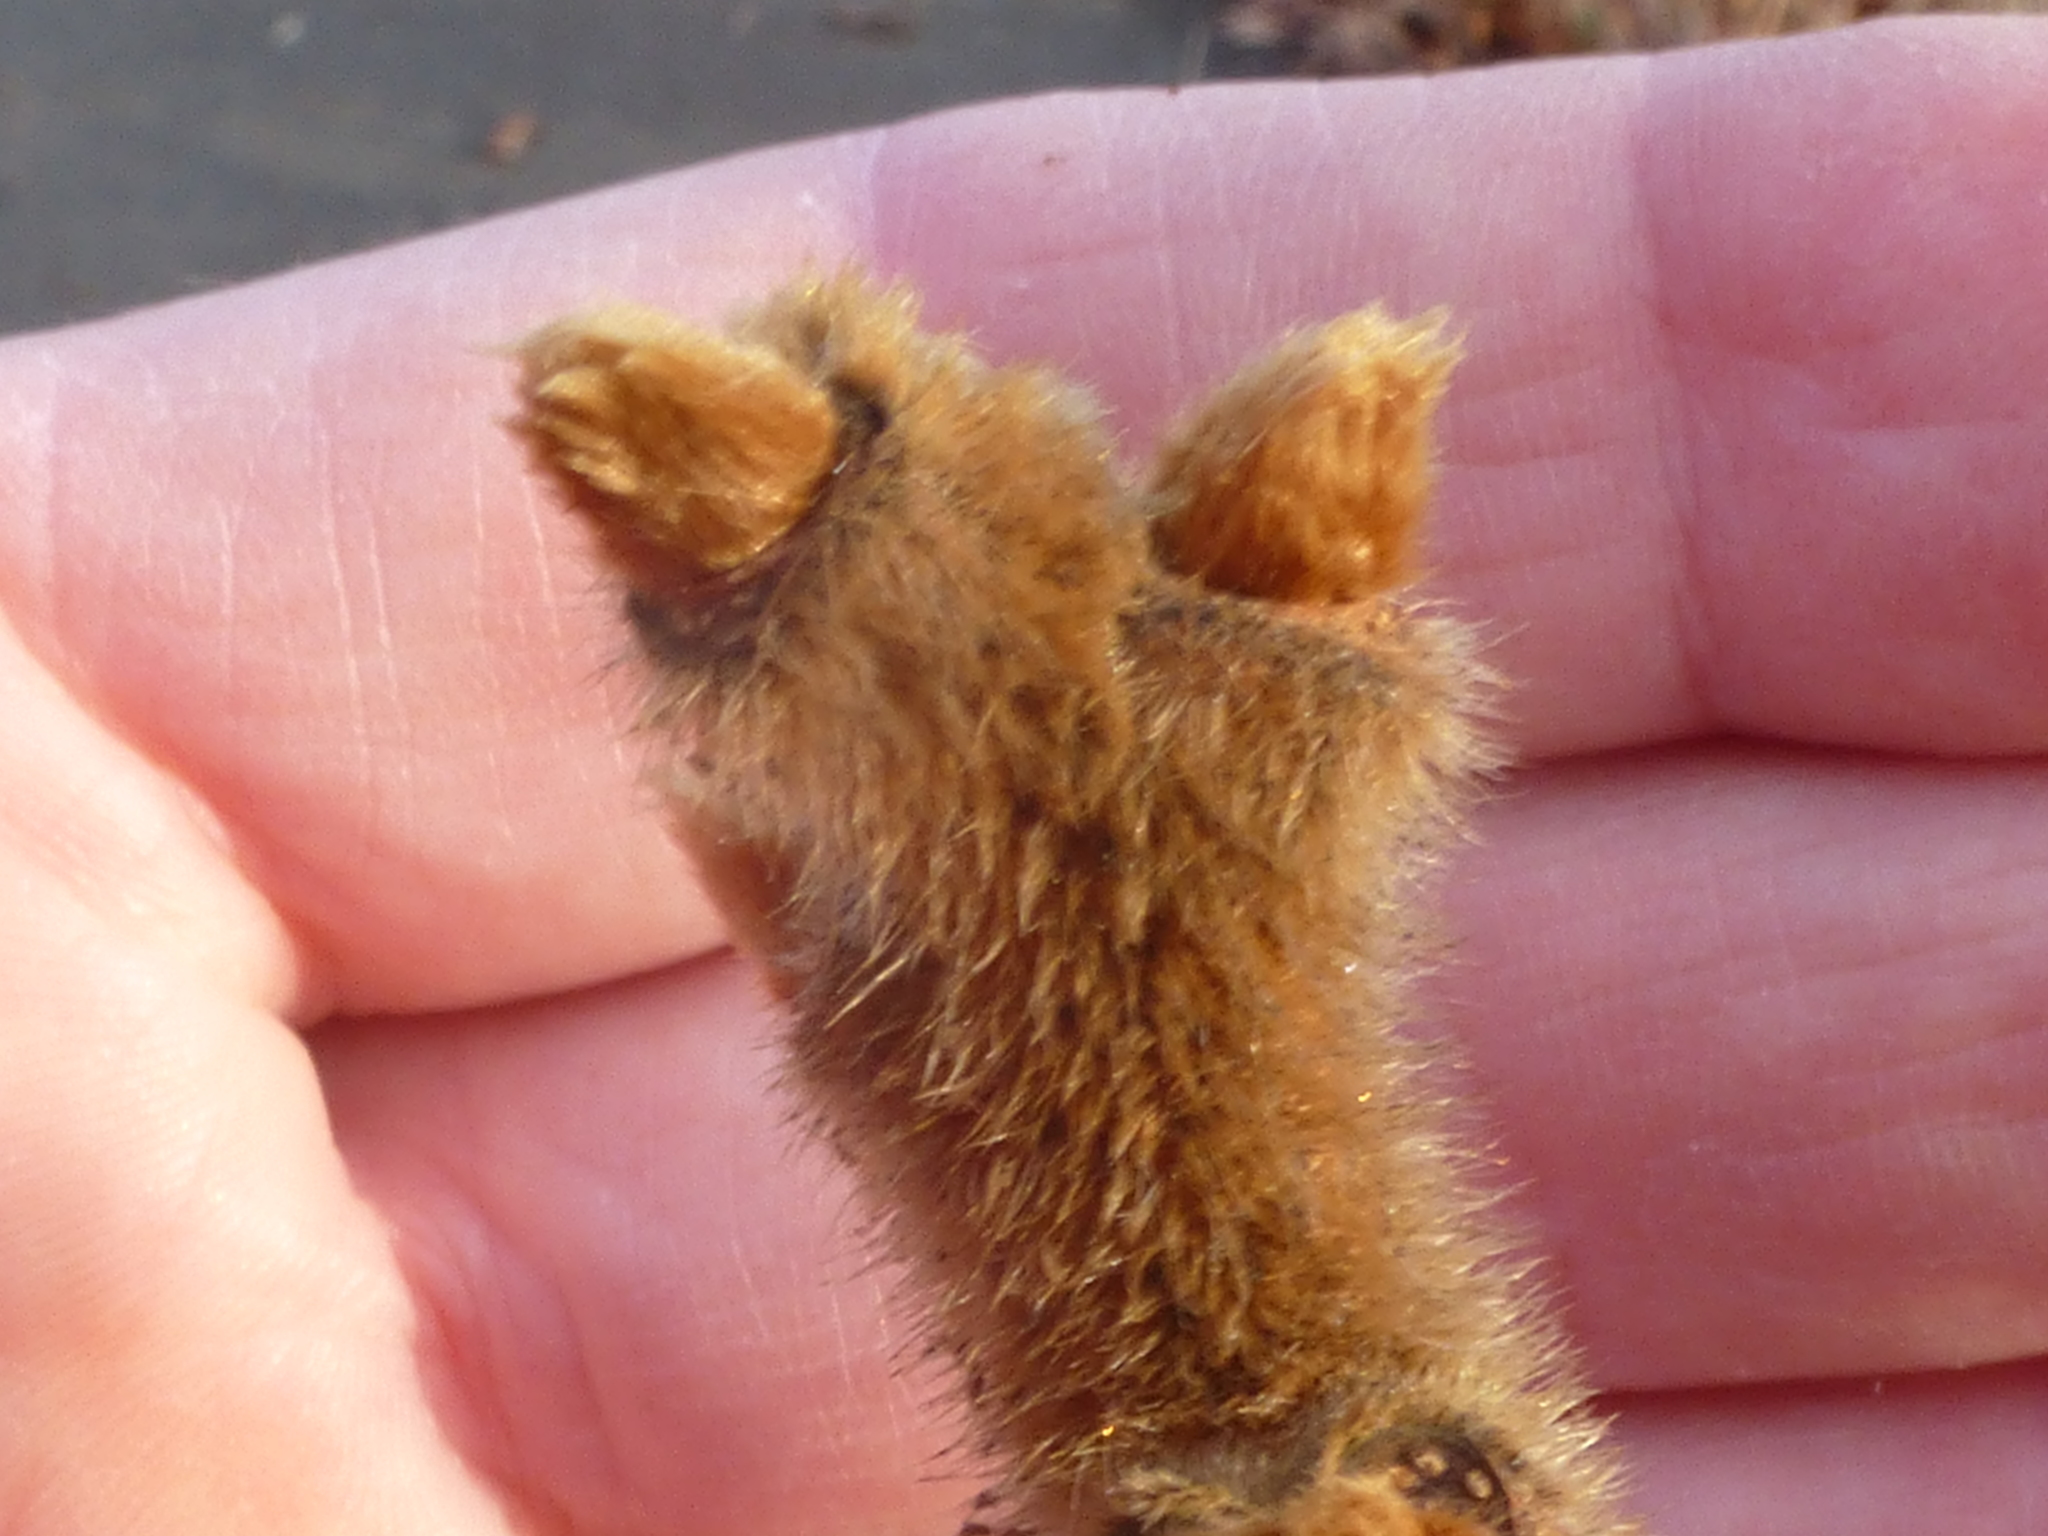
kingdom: Plantae
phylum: Tracheophyta
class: Magnoliopsida
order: Sapindales
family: Anacardiaceae
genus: Rhus
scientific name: Rhus typhina
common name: Staghorn sumac
